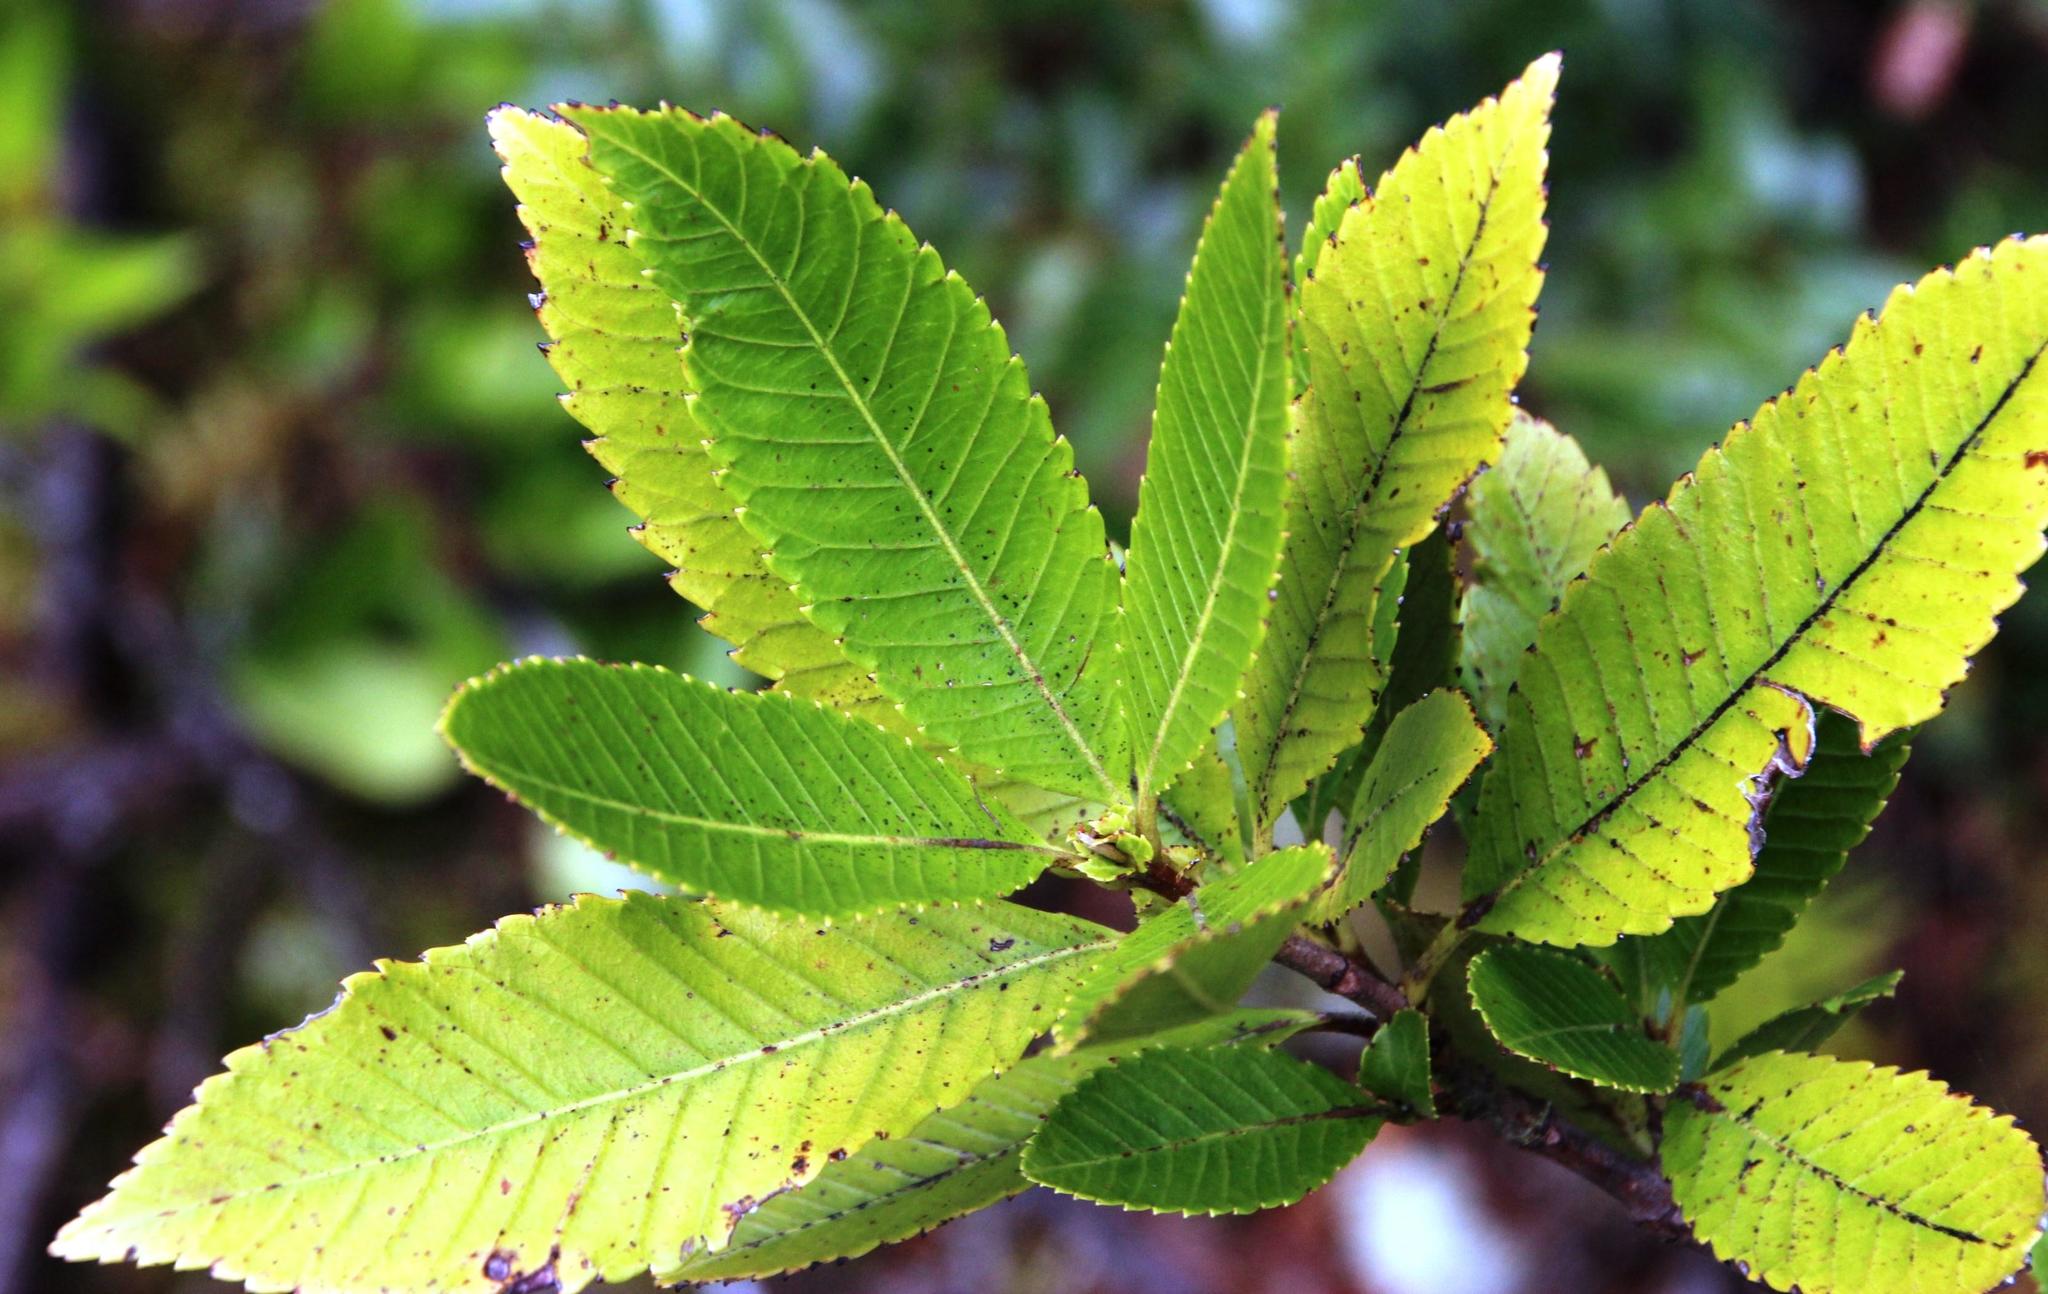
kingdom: Plantae
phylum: Tracheophyta
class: Magnoliopsida
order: Oxalidales
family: Cunoniaceae
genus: Caldcluvia
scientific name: Caldcluvia paniculata
